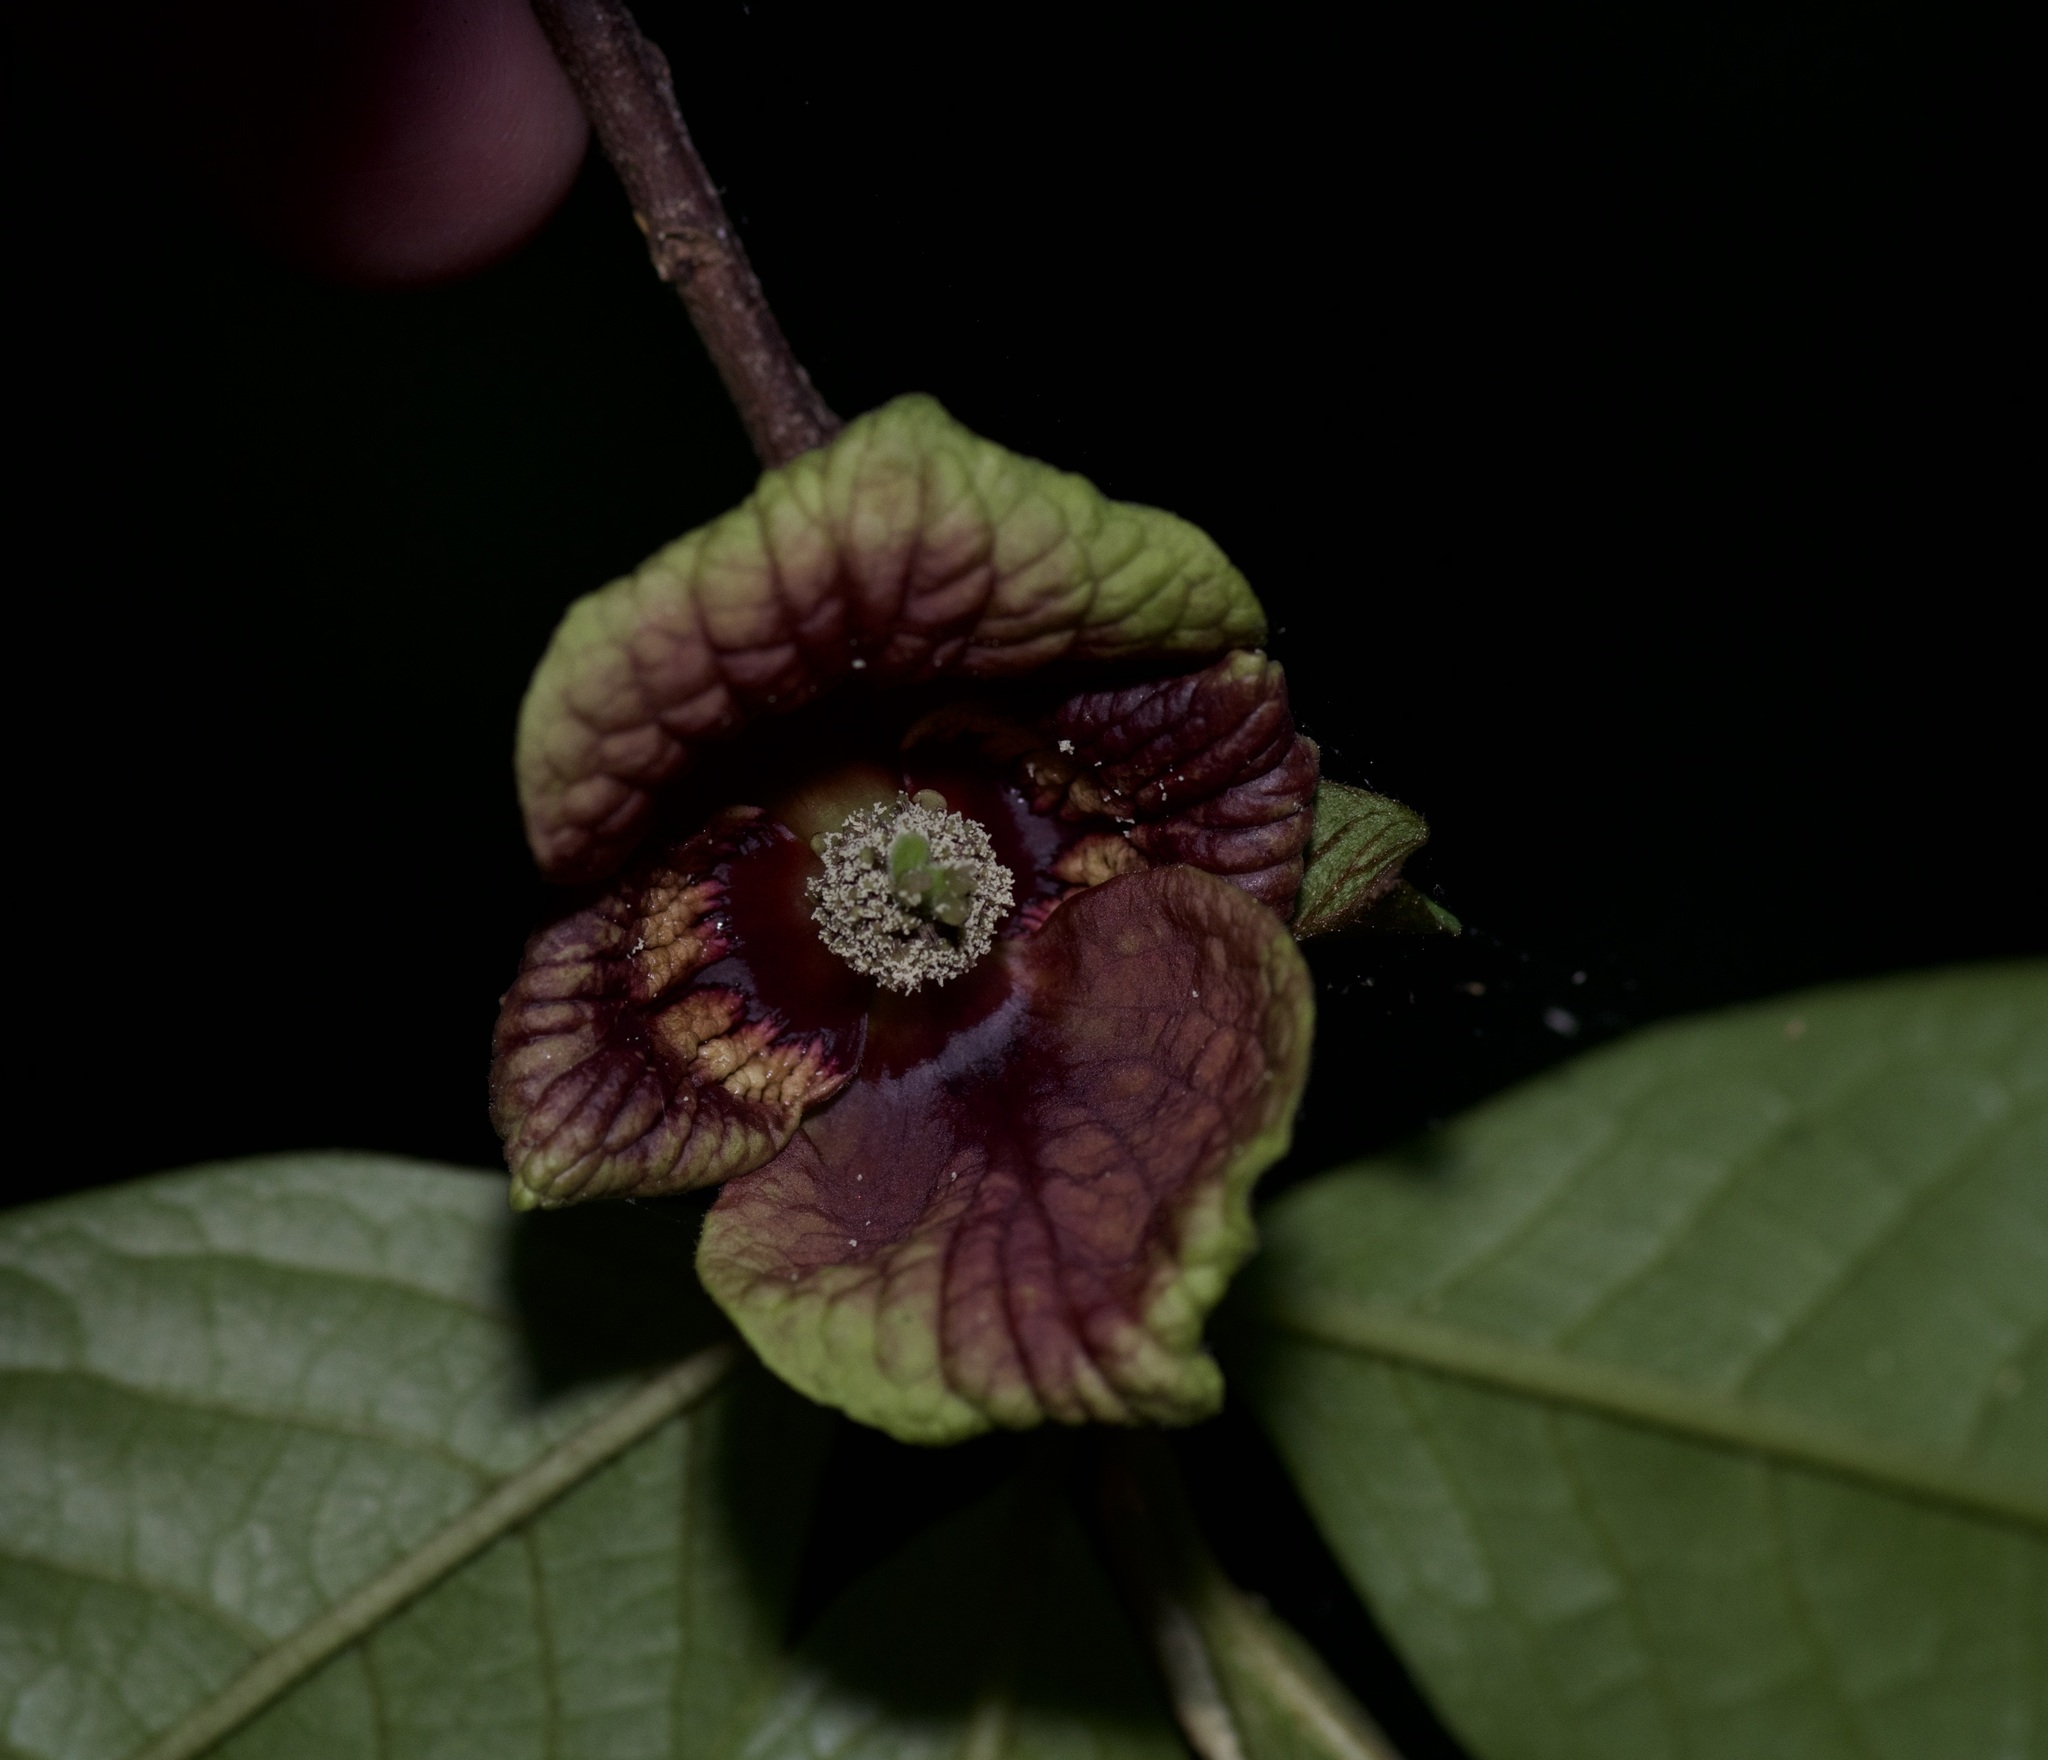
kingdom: Plantae
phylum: Tracheophyta
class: Magnoliopsida
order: Magnoliales
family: Annonaceae
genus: Asimina
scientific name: Asimina triloba
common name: Dog-banana
